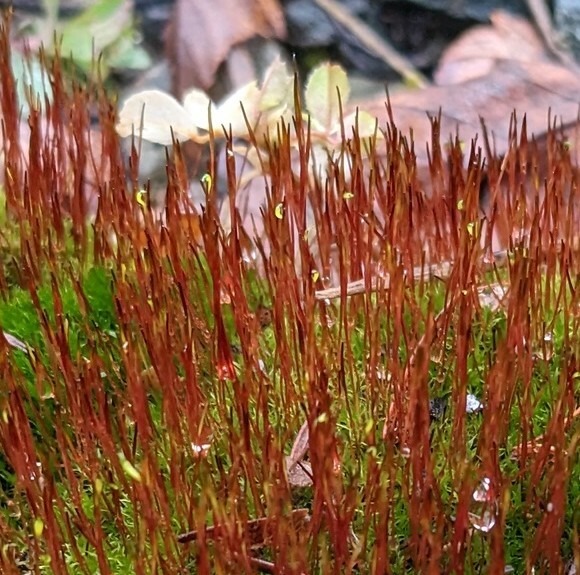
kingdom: Plantae
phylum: Bryophyta
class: Bryopsida
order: Dicranales
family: Ditrichaceae
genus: Ceratodon
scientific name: Ceratodon purpureus
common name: Redshank
